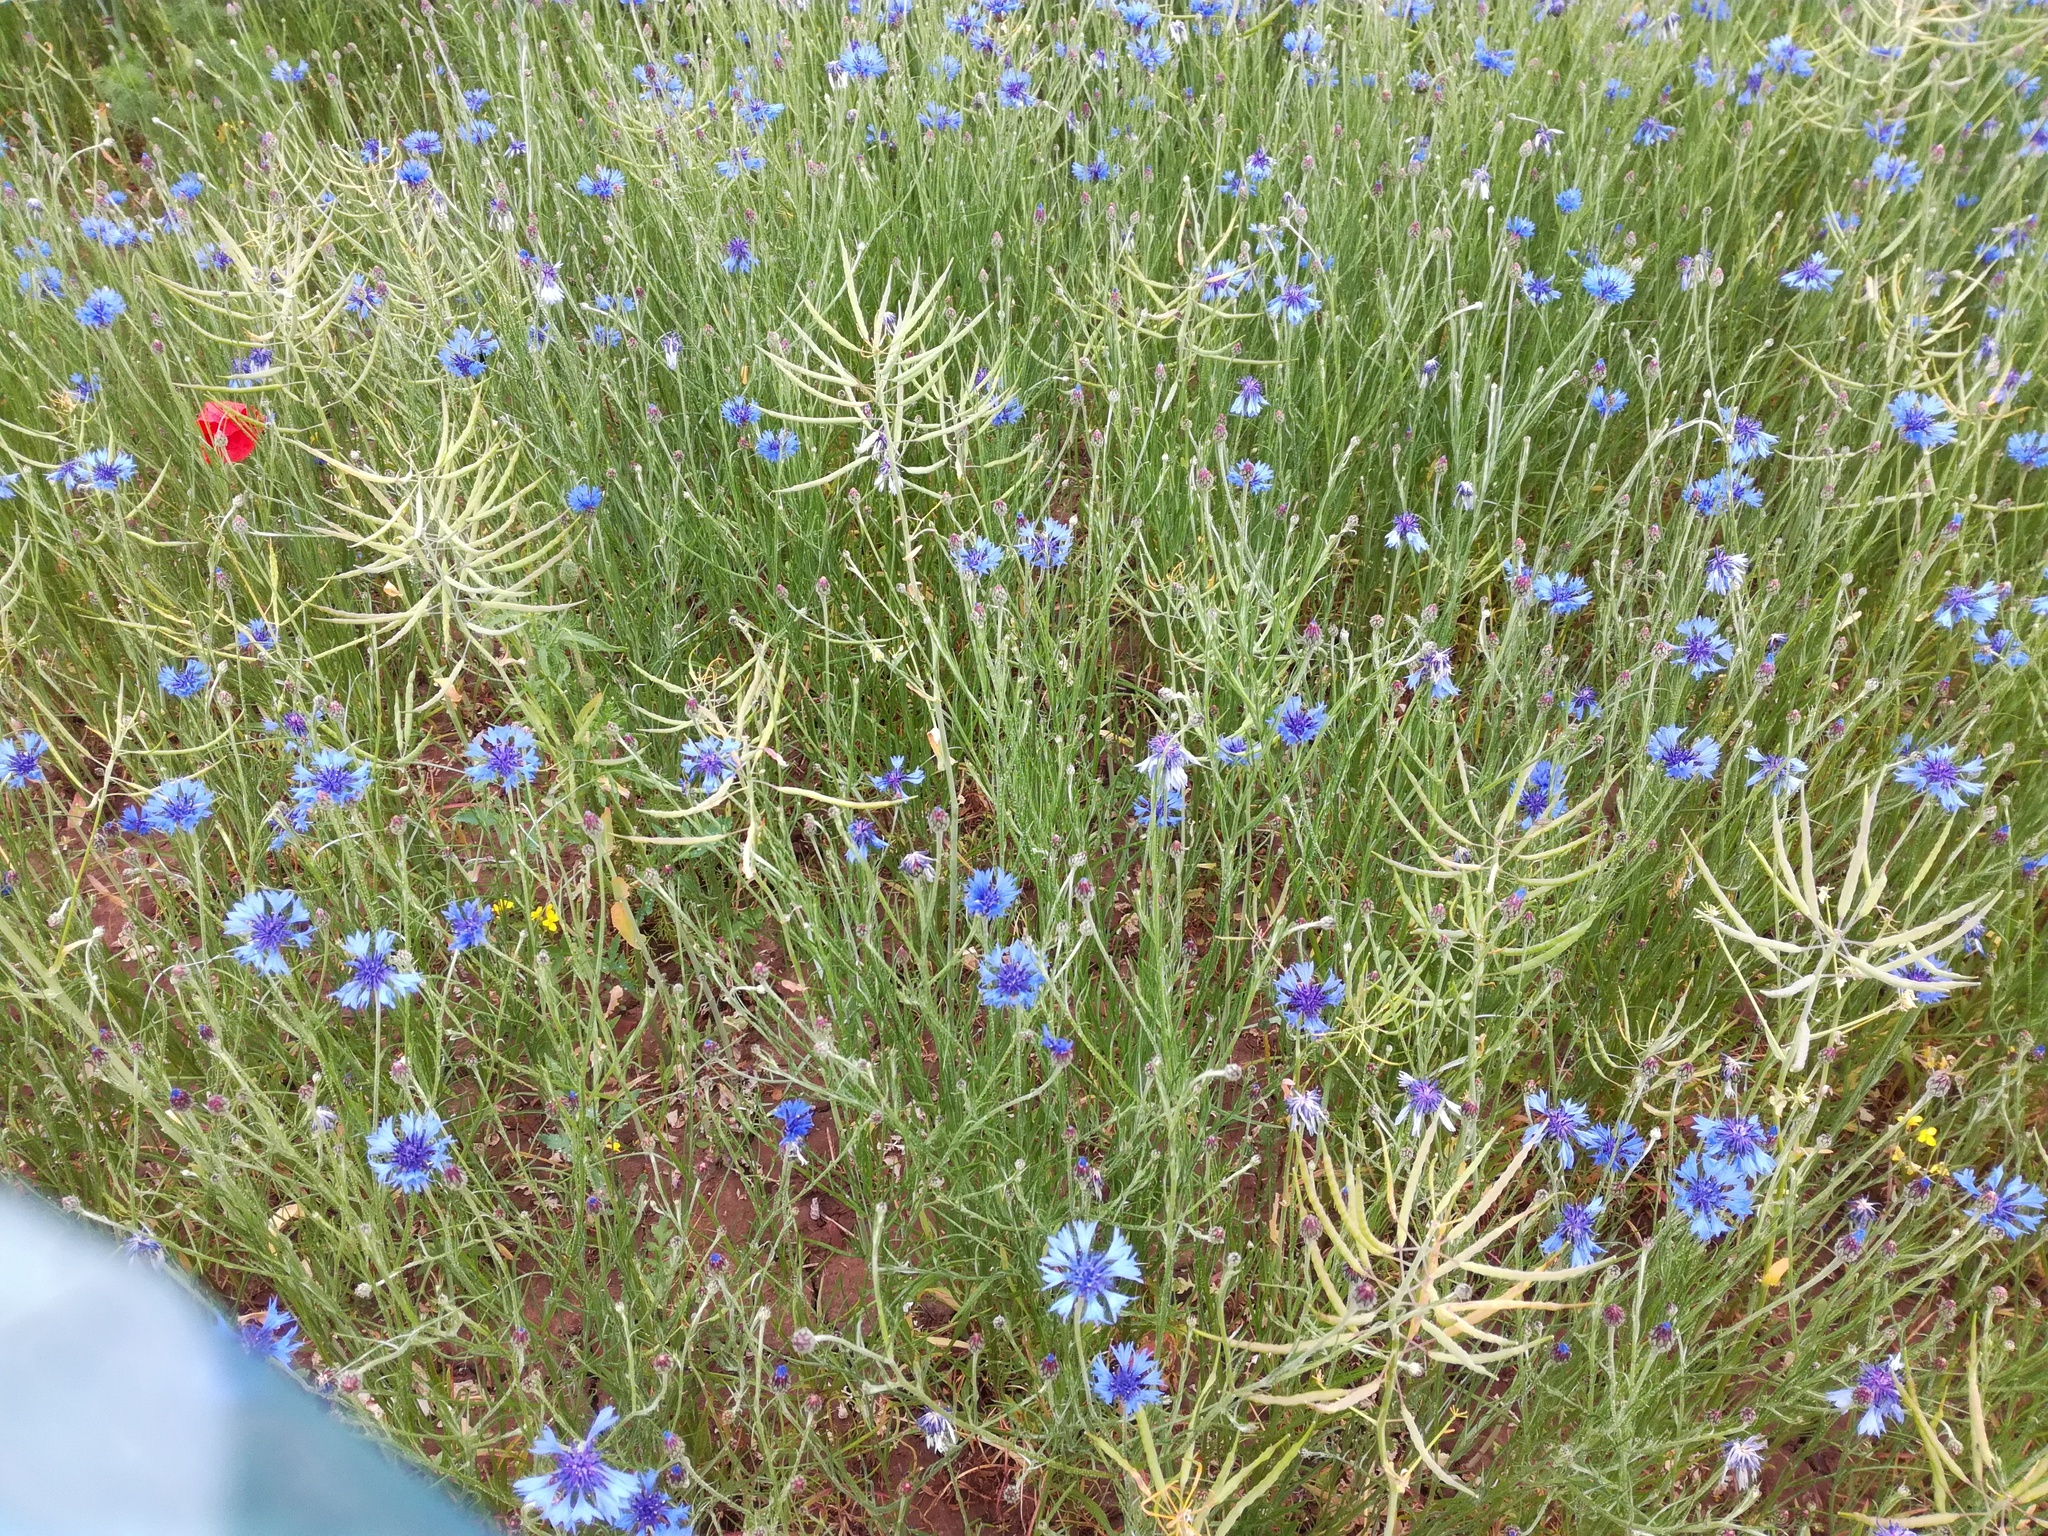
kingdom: Plantae
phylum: Tracheophyta
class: Magnoliopsida
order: Asterales
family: Asteraceae
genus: Centaurea
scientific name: Centaurea cyanus
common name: Cornflower
